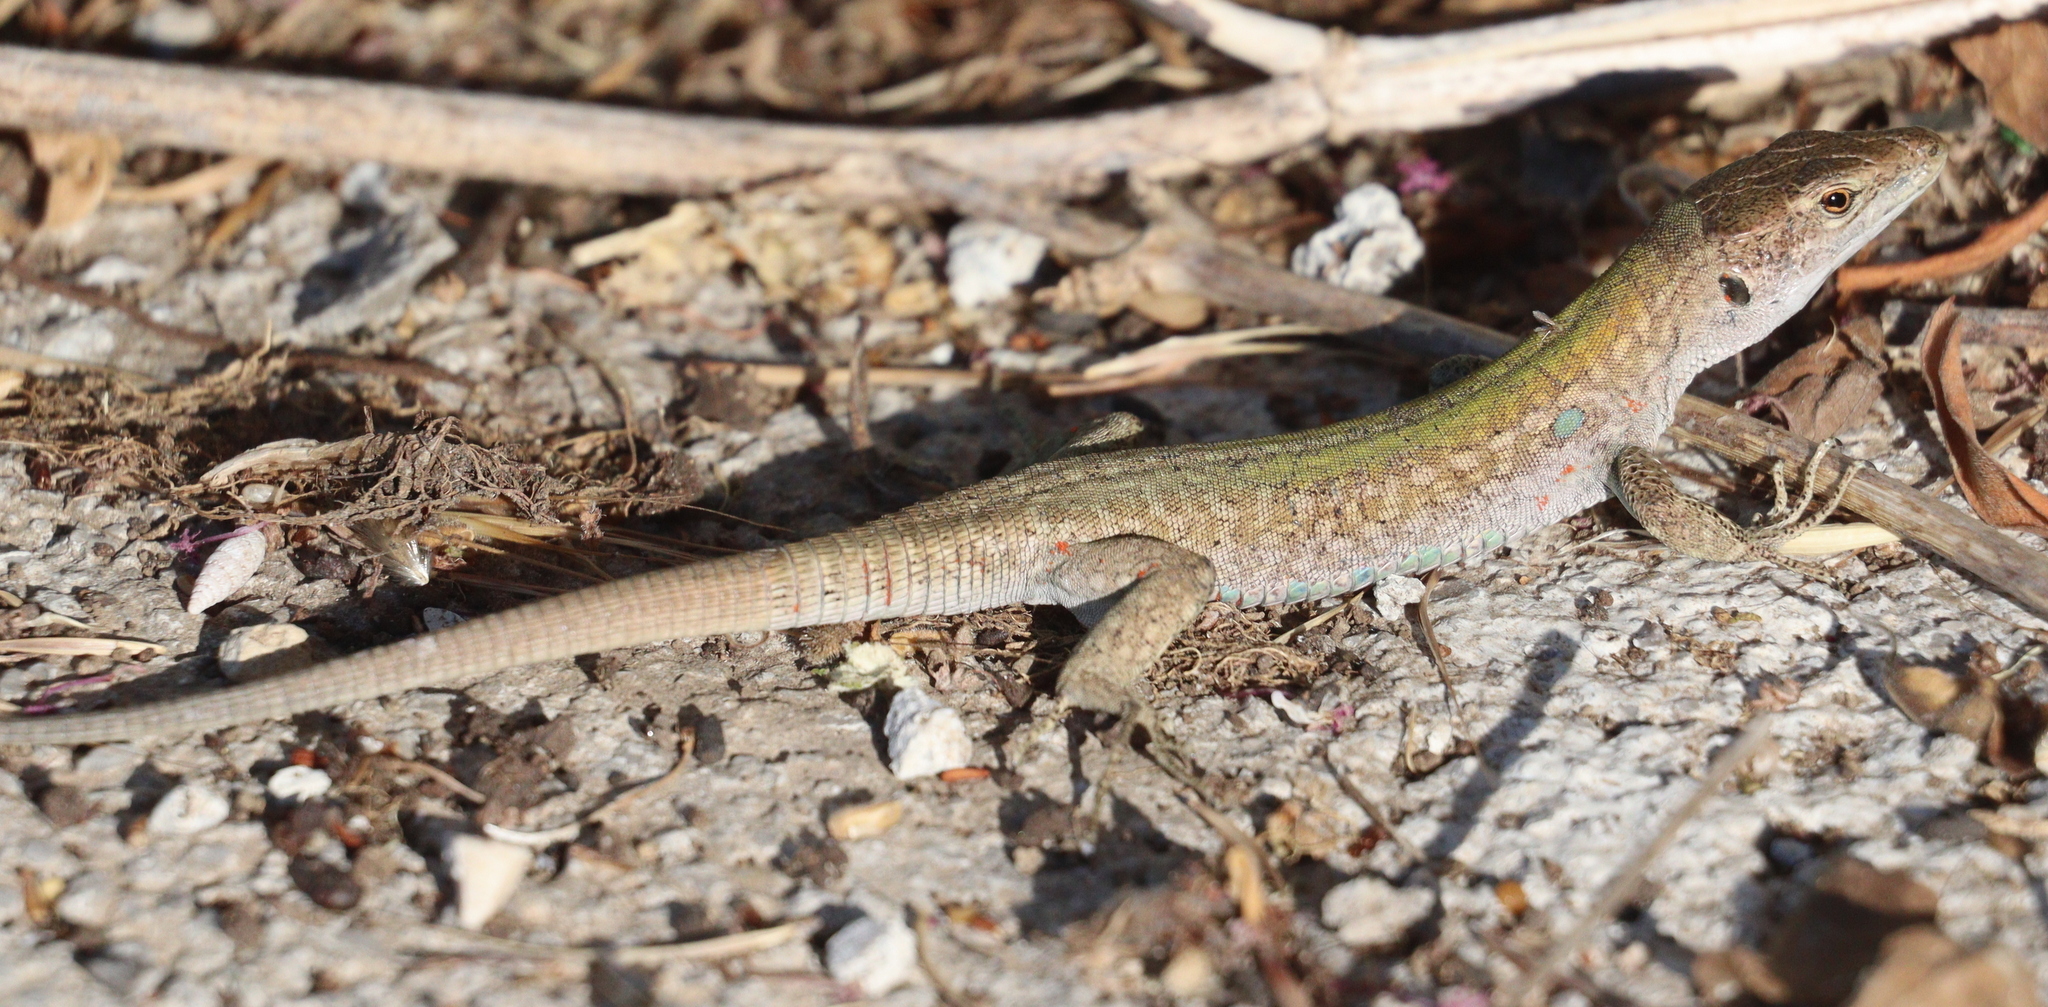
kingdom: Animalia
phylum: Chordata
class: Squamata
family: Lacertidae
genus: Podarcis
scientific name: Podarcis siculus
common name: Italian wall lizard
